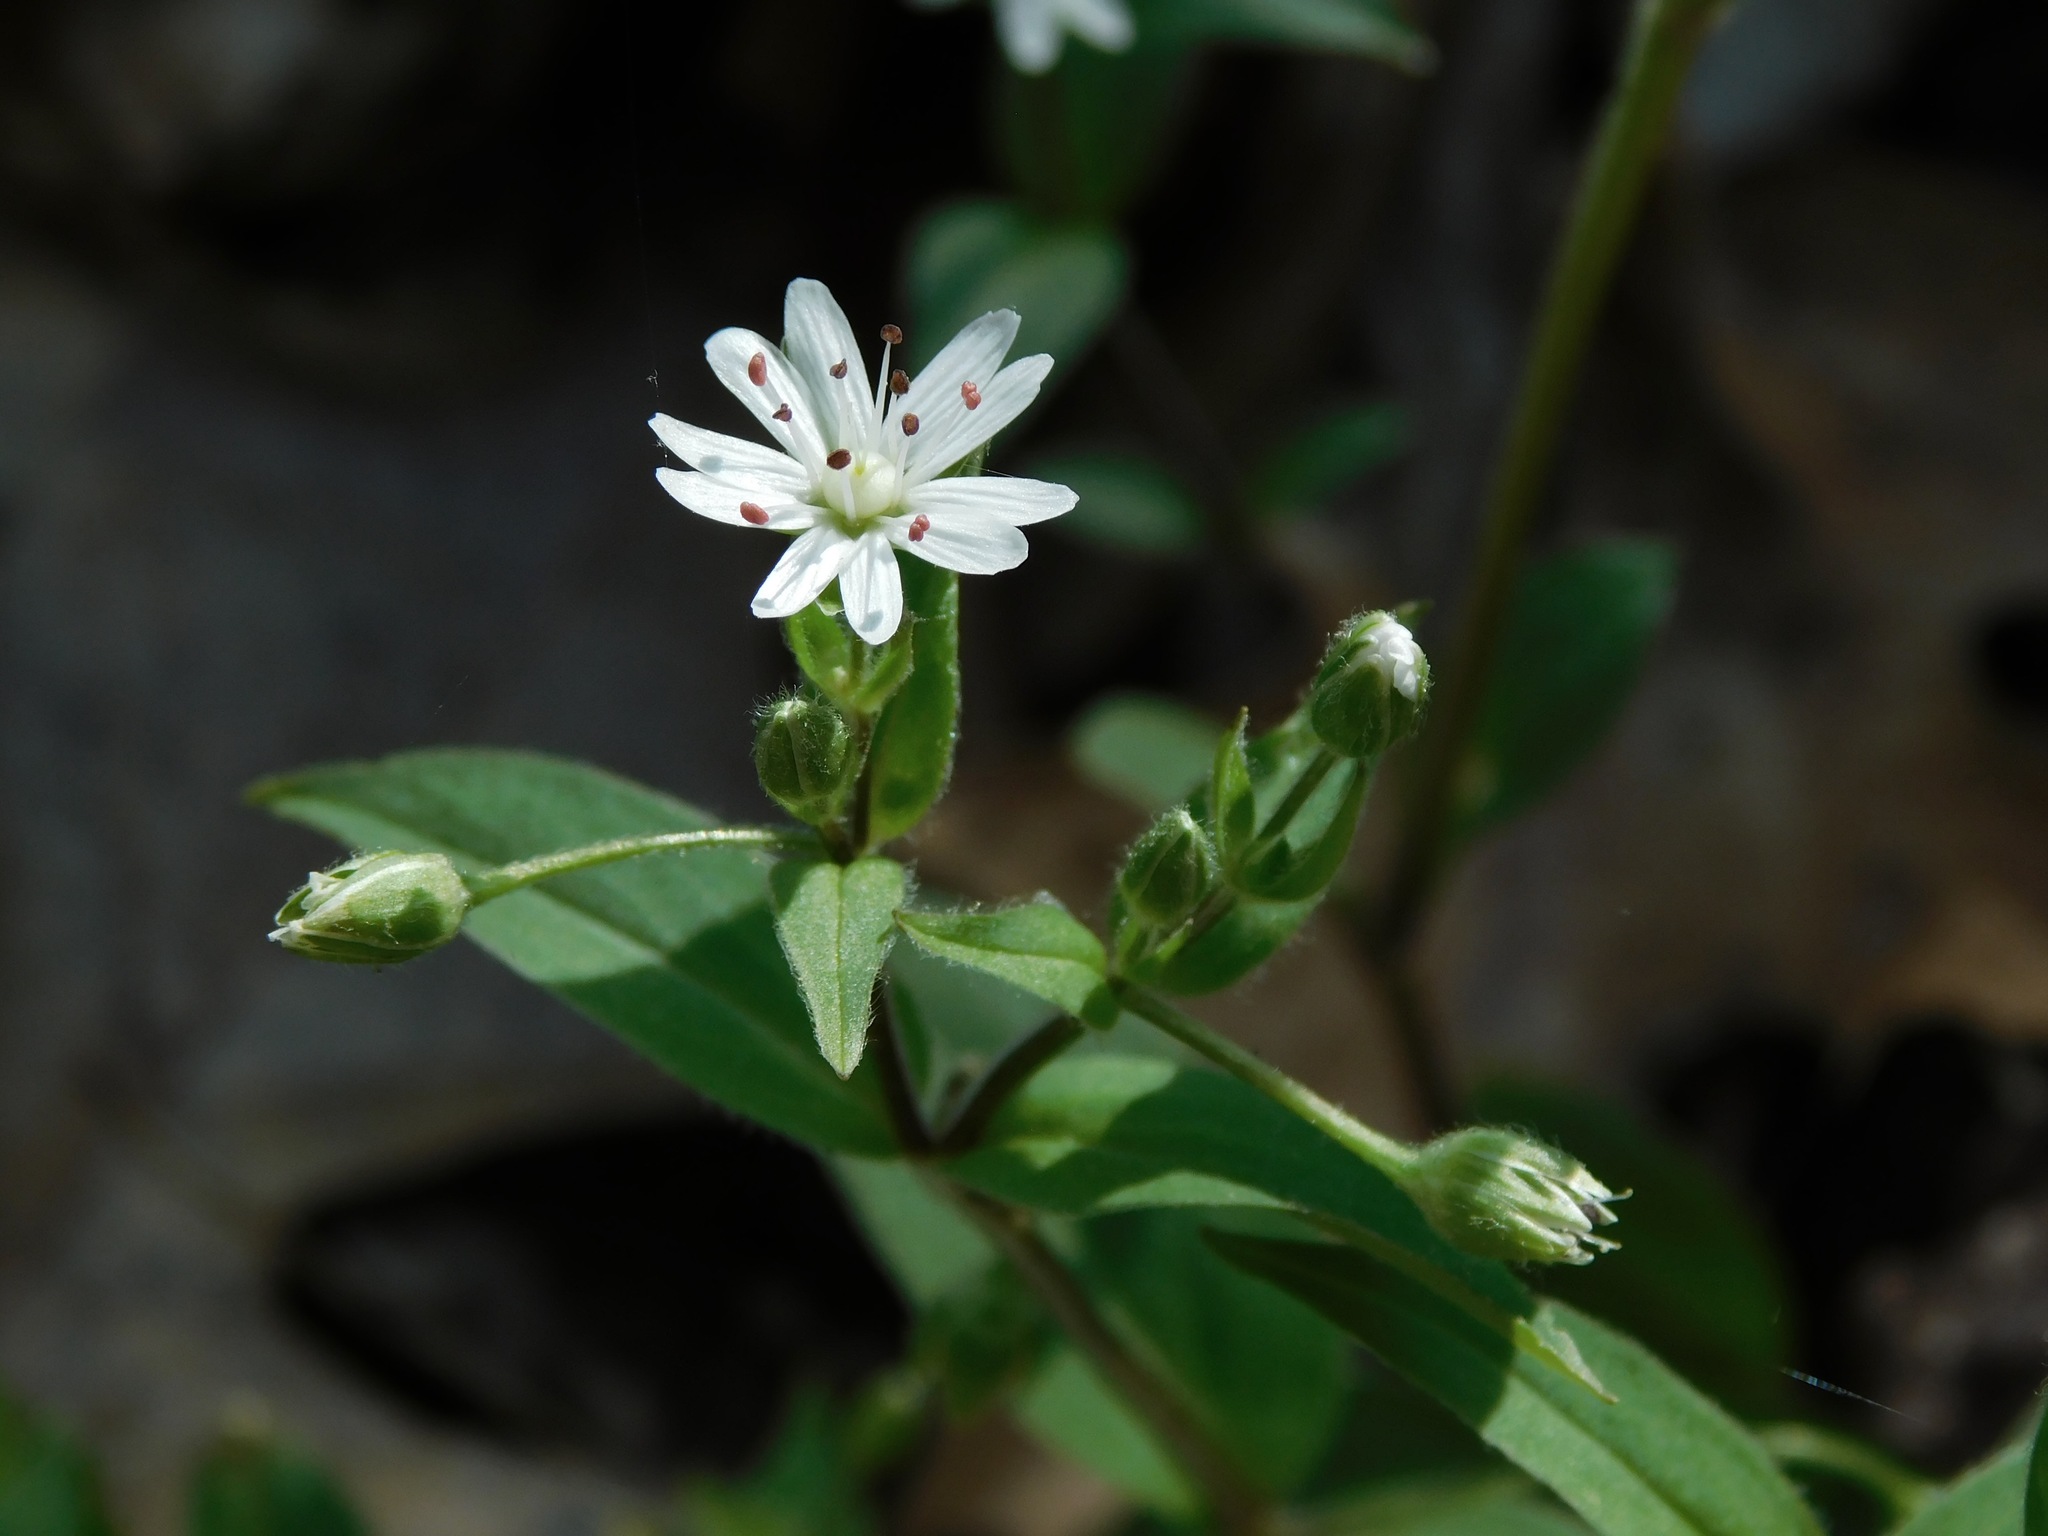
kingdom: Plantae
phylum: Tracheophyta
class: Magnoliopsida
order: Caryophyllales
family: Caryophyllaceae
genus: Stellaria
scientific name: Stellaria pubera
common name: Star chickweed
